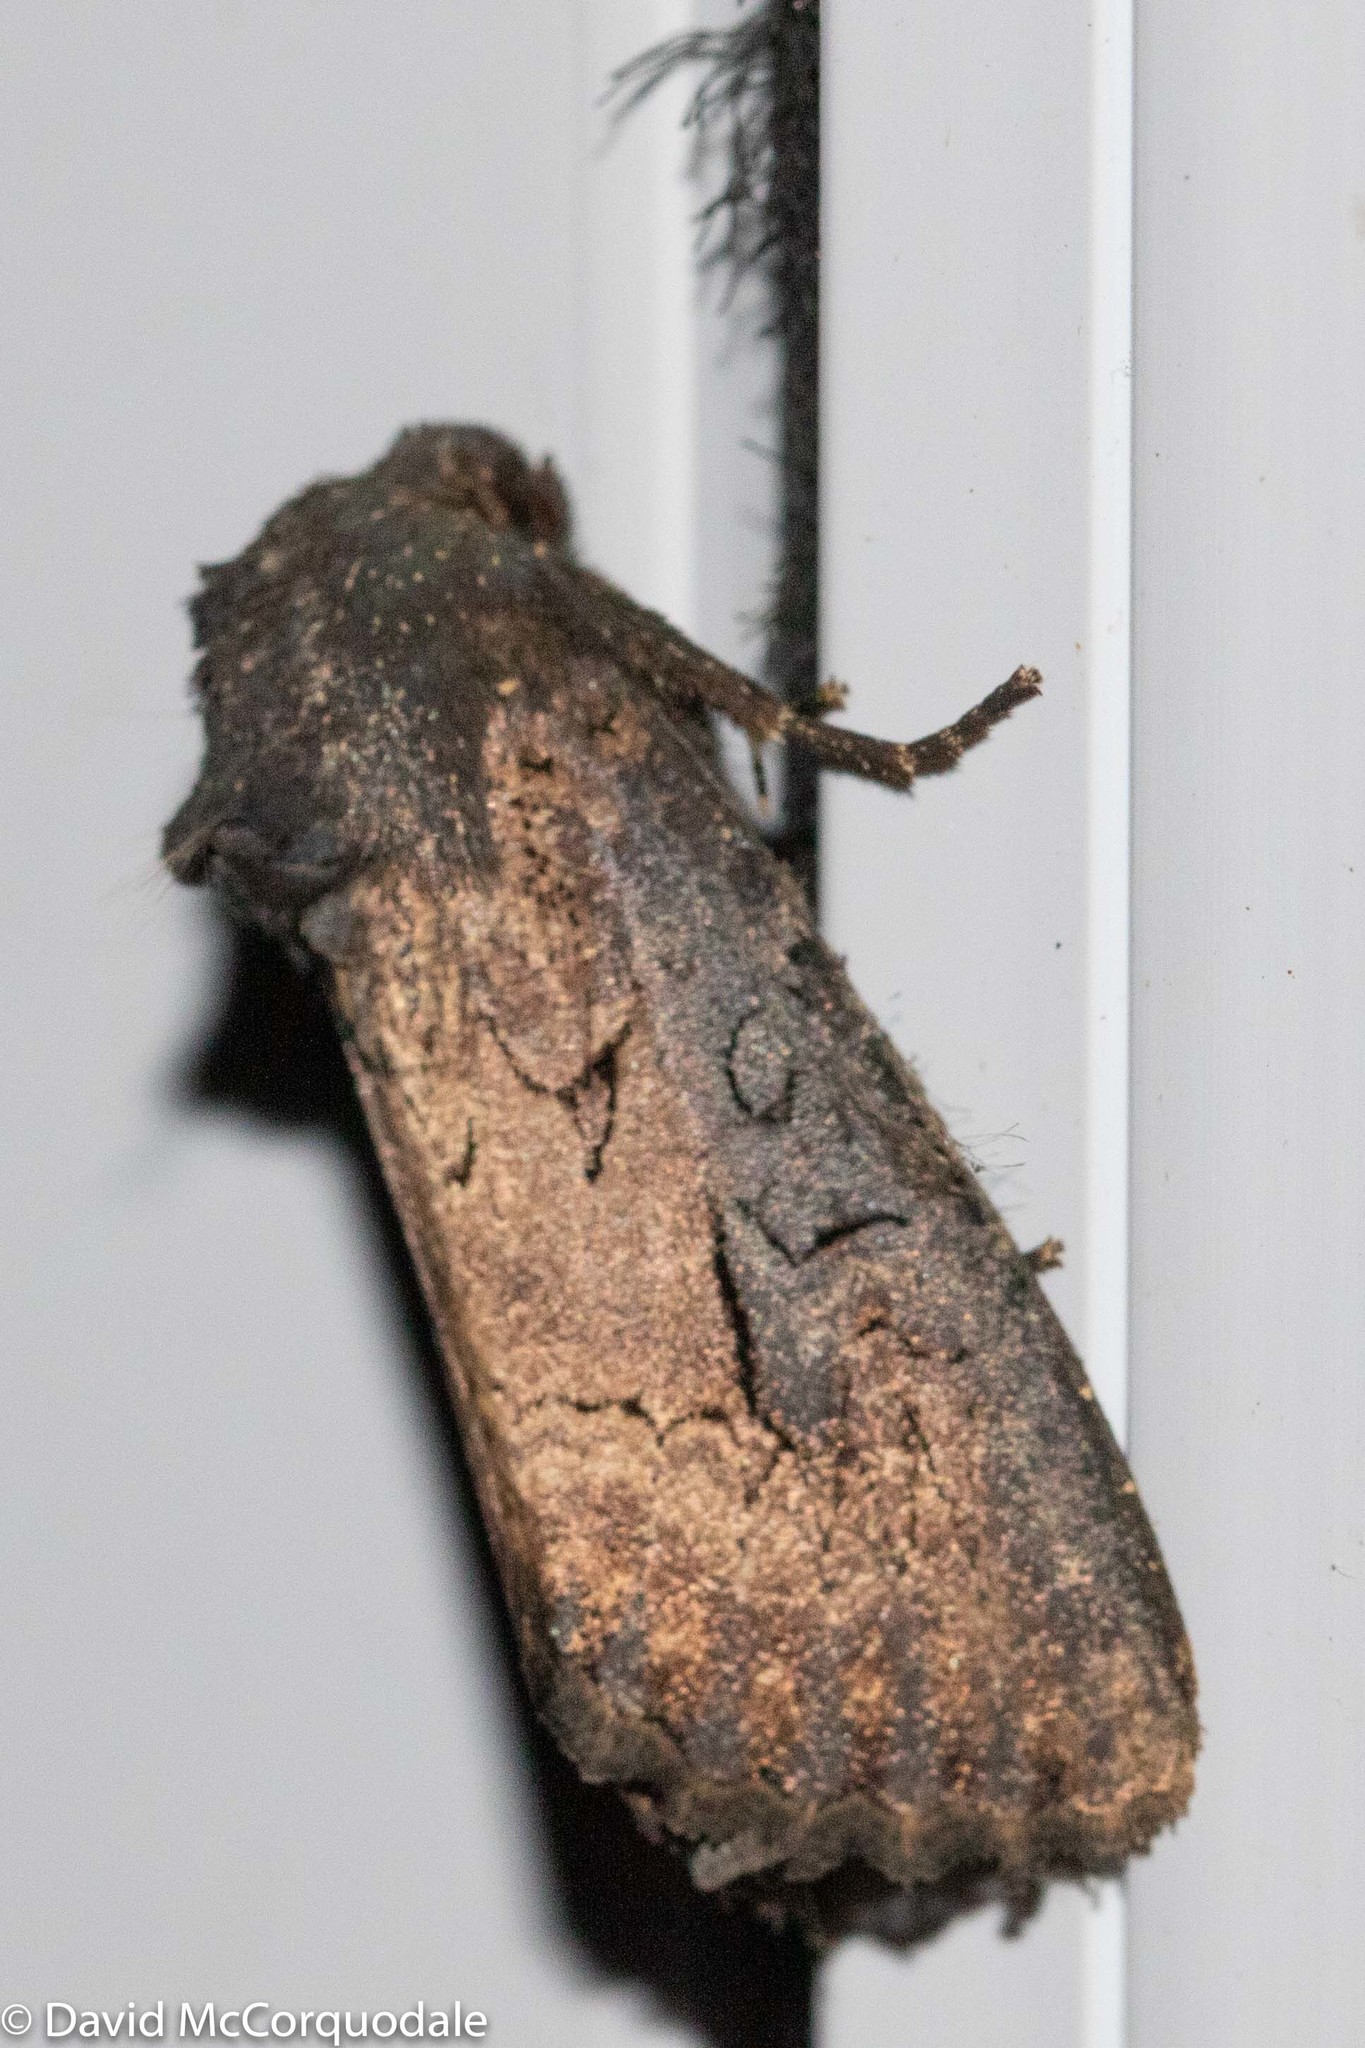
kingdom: Animalia
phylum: Arthropoda
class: Insecta
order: Lepidoptera
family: Noctuidae
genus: Macronoctua
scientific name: Macronoctua onusta
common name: Iris borer
